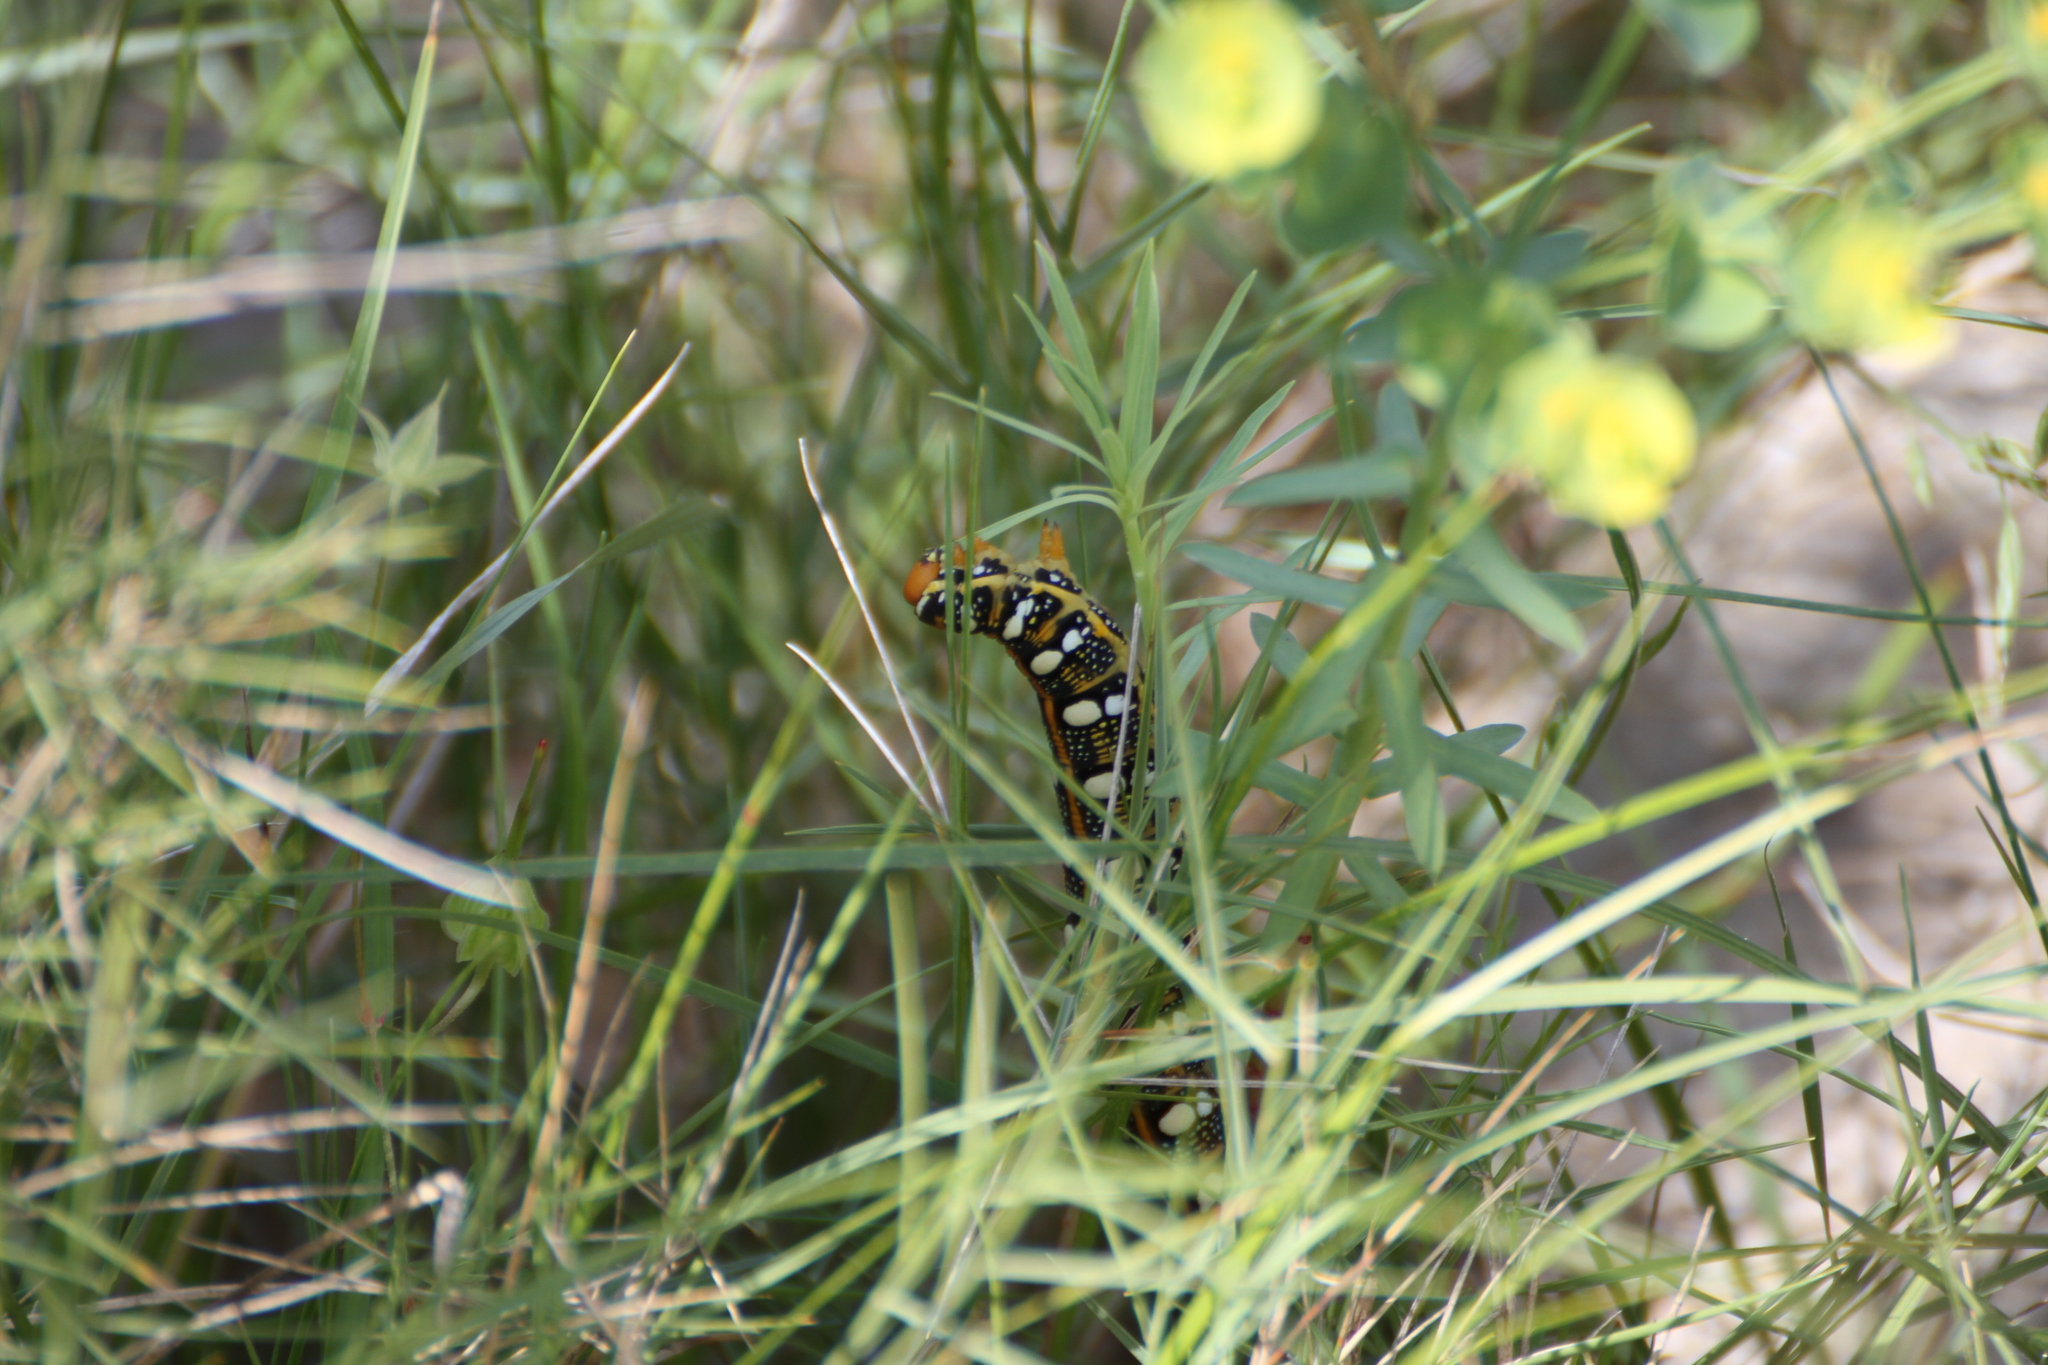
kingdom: Animalia
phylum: Arthropoda
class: Insecta
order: Lepidoptera
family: Sphingidae
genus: Hyles
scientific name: Hyles euphorbiae
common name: Spurge hawk-moth
